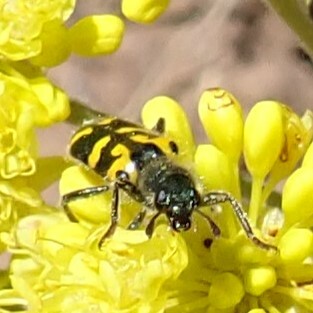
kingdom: Animalia
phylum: Arthropoda
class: Insecta
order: Coleoptera
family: Cleridae
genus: Trichodes
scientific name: Trichodes ornatus
